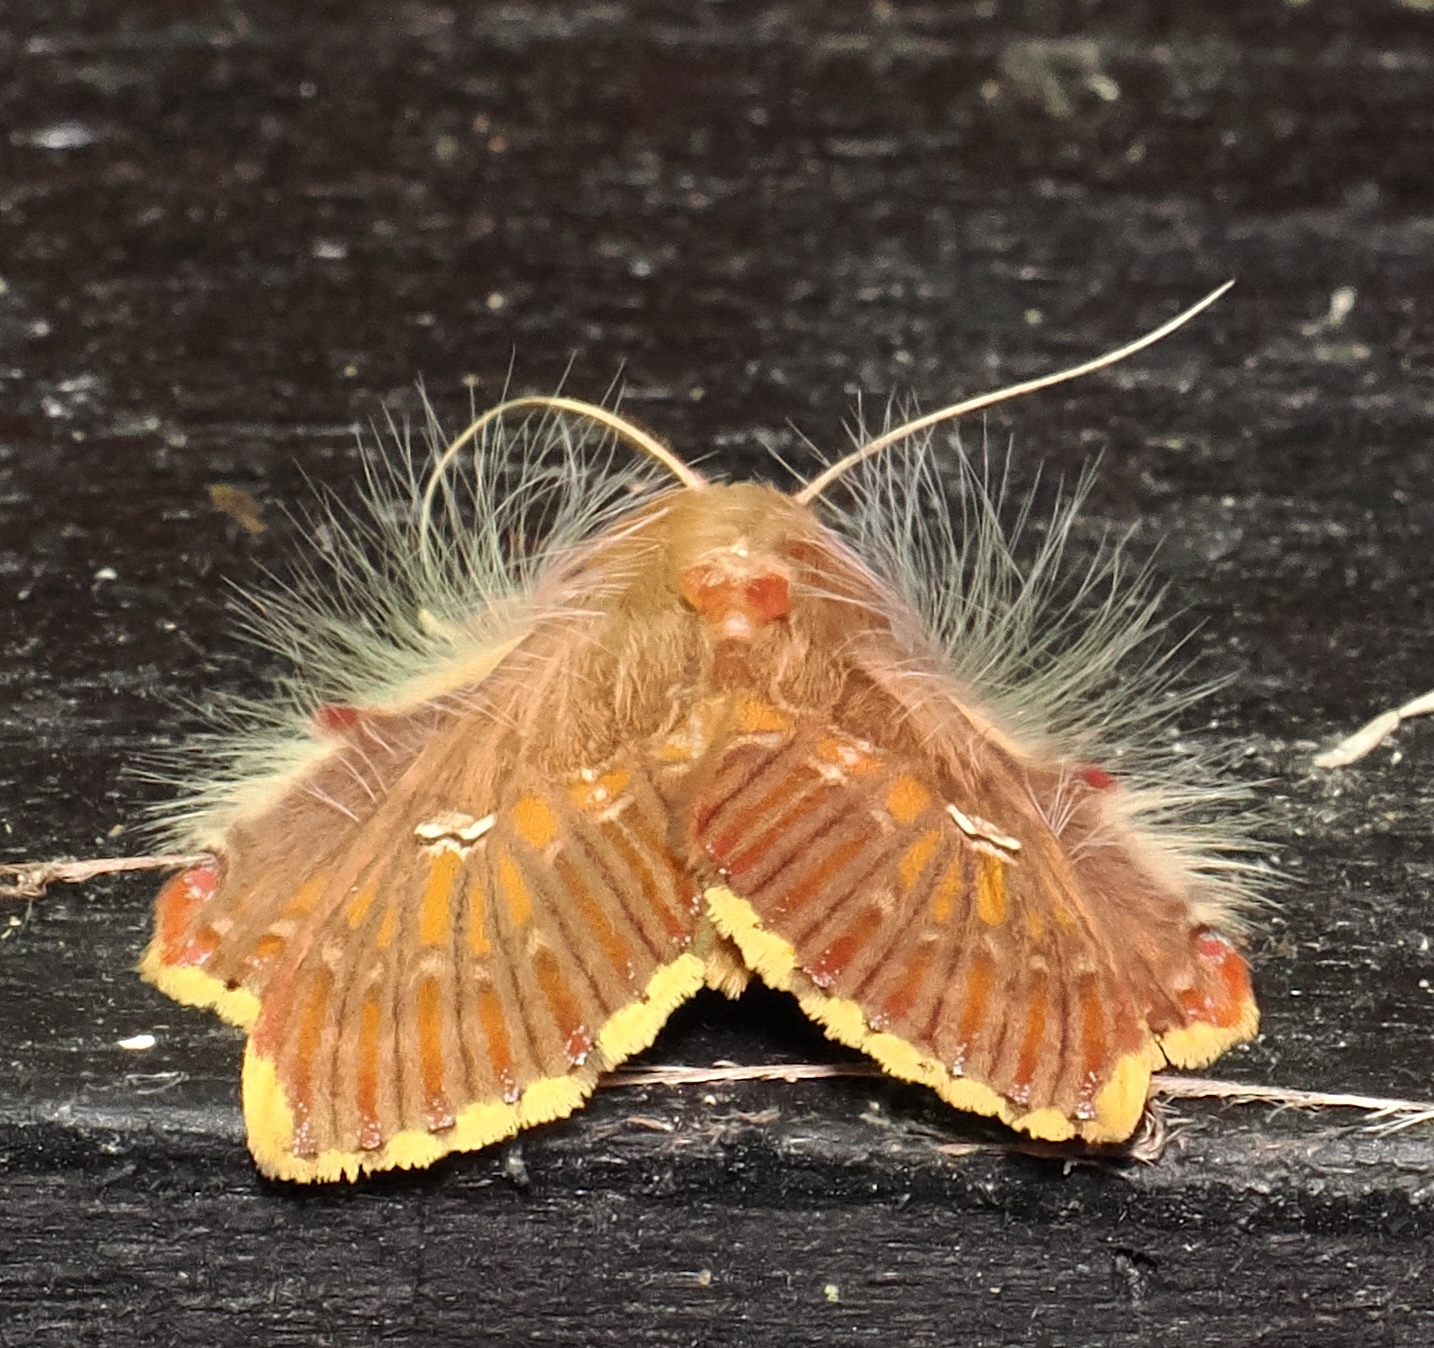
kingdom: Animalia
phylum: Arthropoda
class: Insecta
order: Lepidoptera
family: Erebidae
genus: Sosxetra
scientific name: Sosxetra grata
